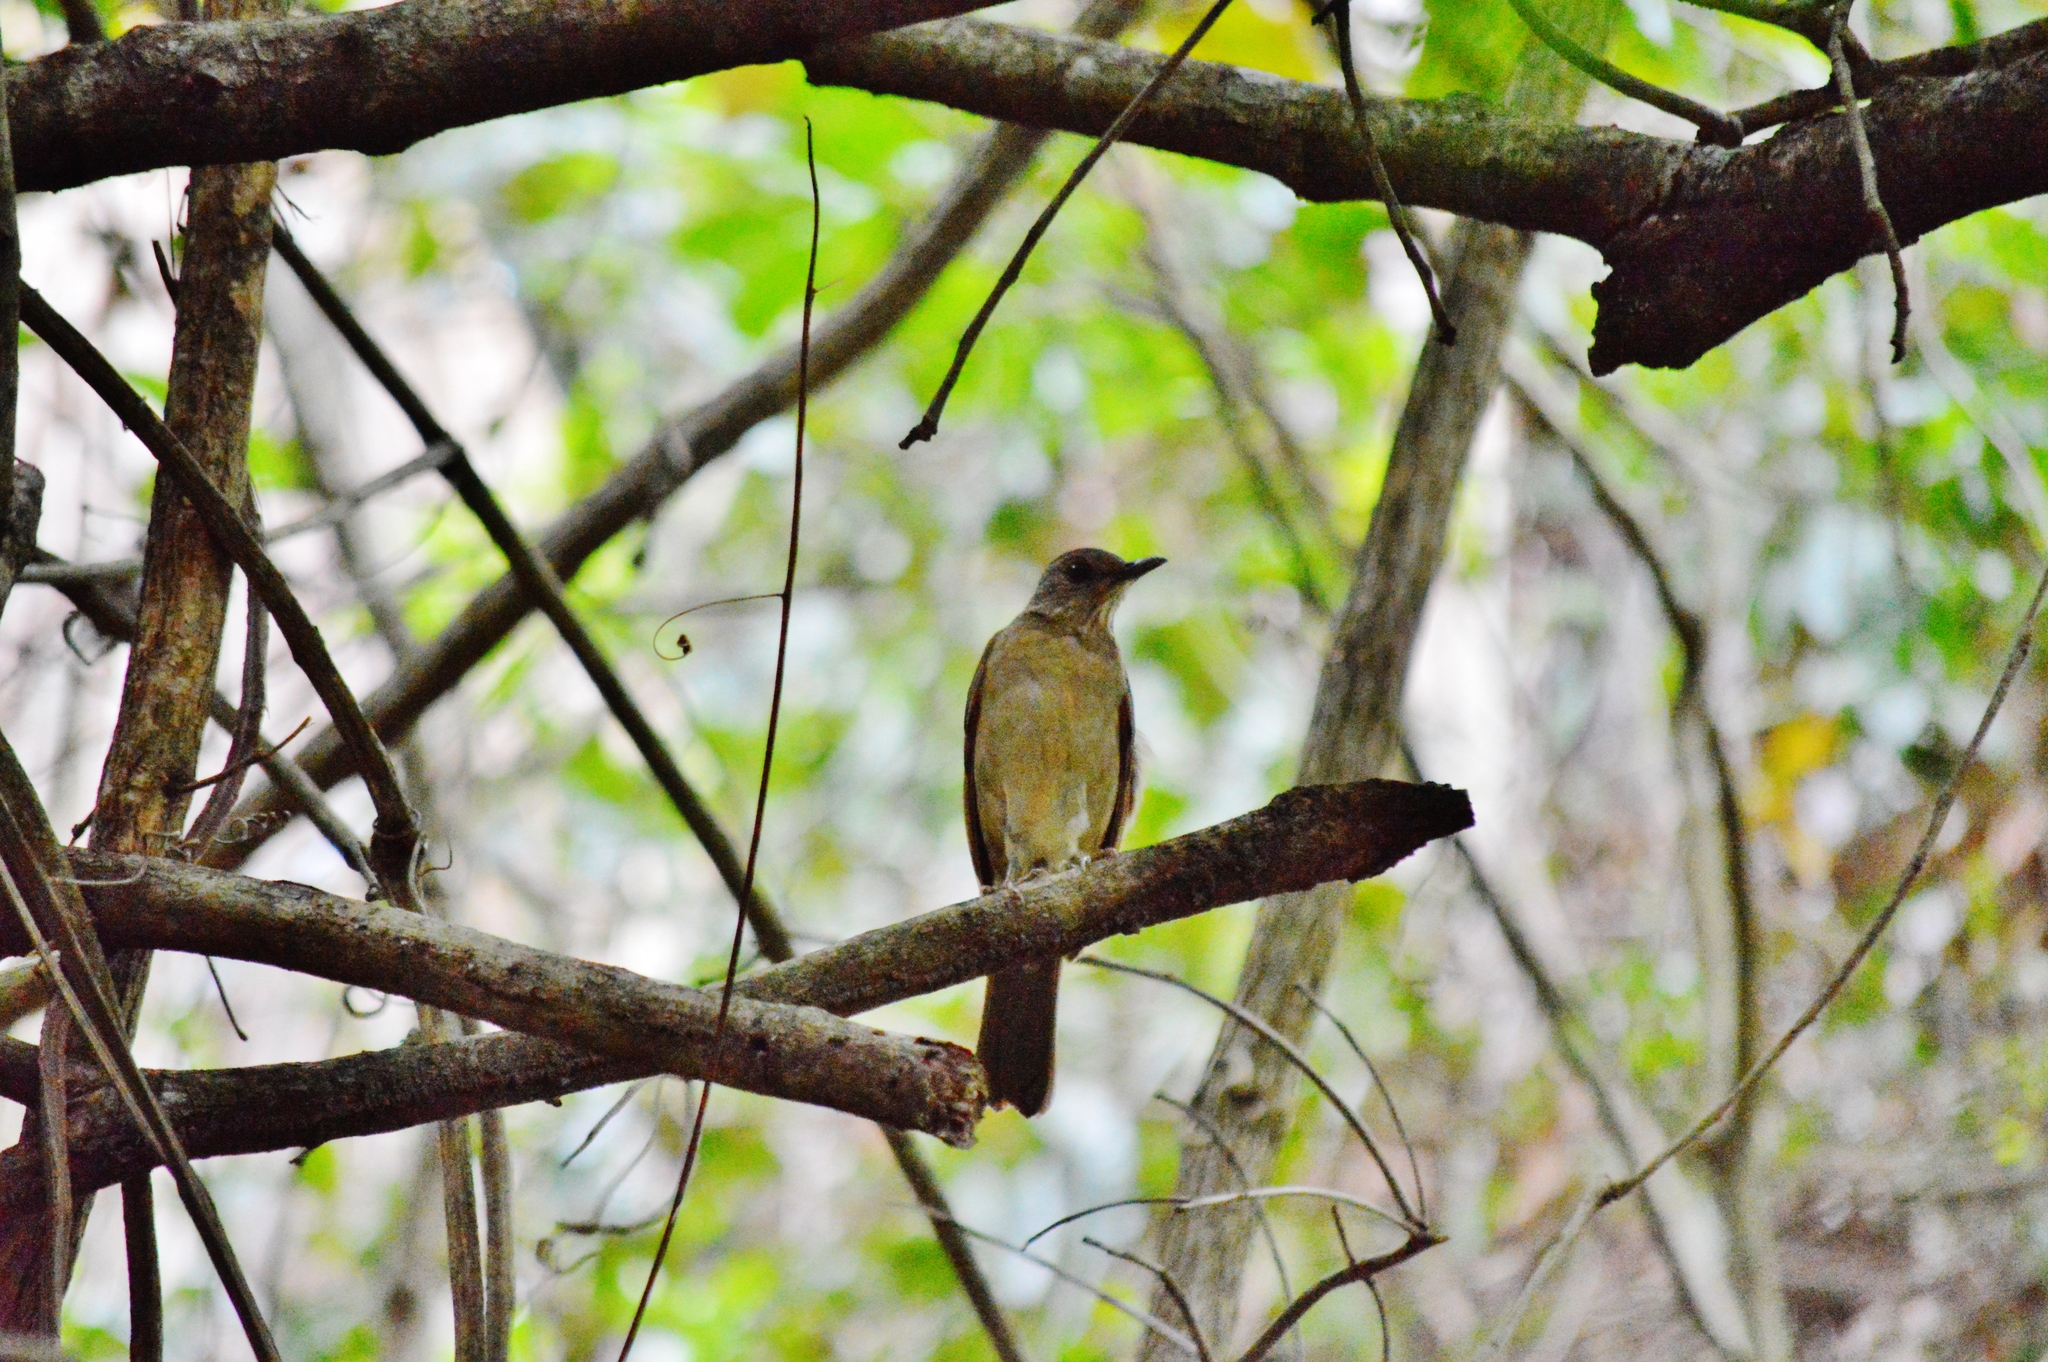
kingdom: Animalia
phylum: Chordata
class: Aves
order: Passeriformes
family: Turdidae
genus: Turdus
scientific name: Turdus leucomelas
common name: Pale-breasted thrush
